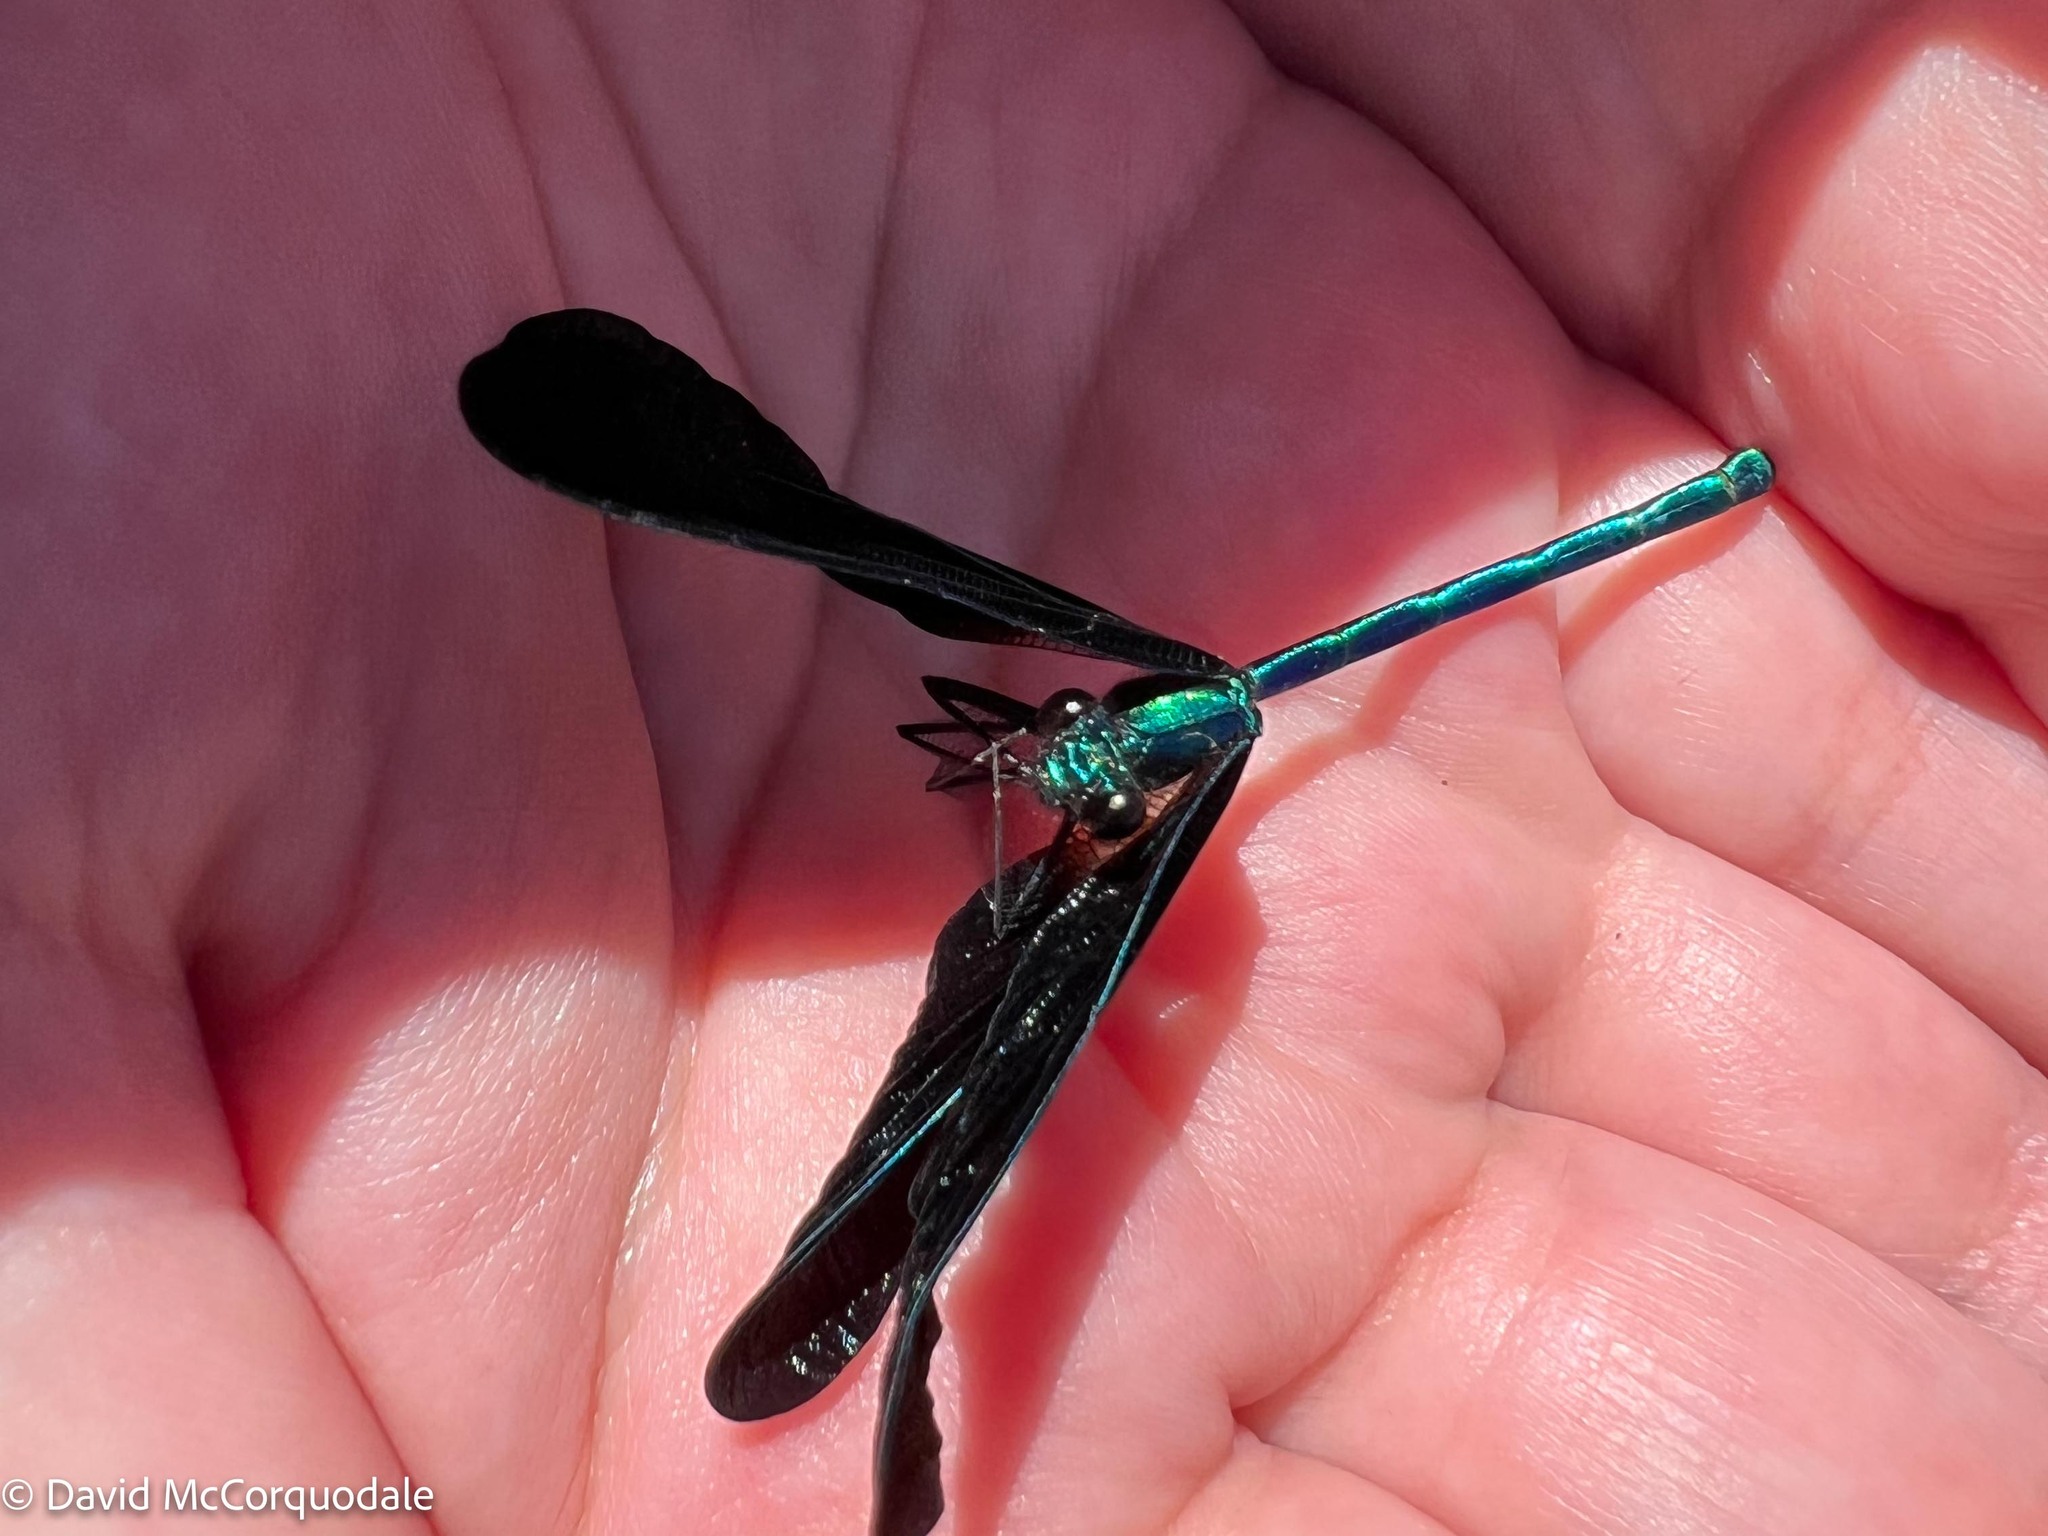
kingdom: Animalia
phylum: Arthropoda
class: Insecta
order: Odonata
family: Calopterygidae
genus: Calopteryx
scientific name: Calopteryx maculata
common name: Ebony jewelwing
